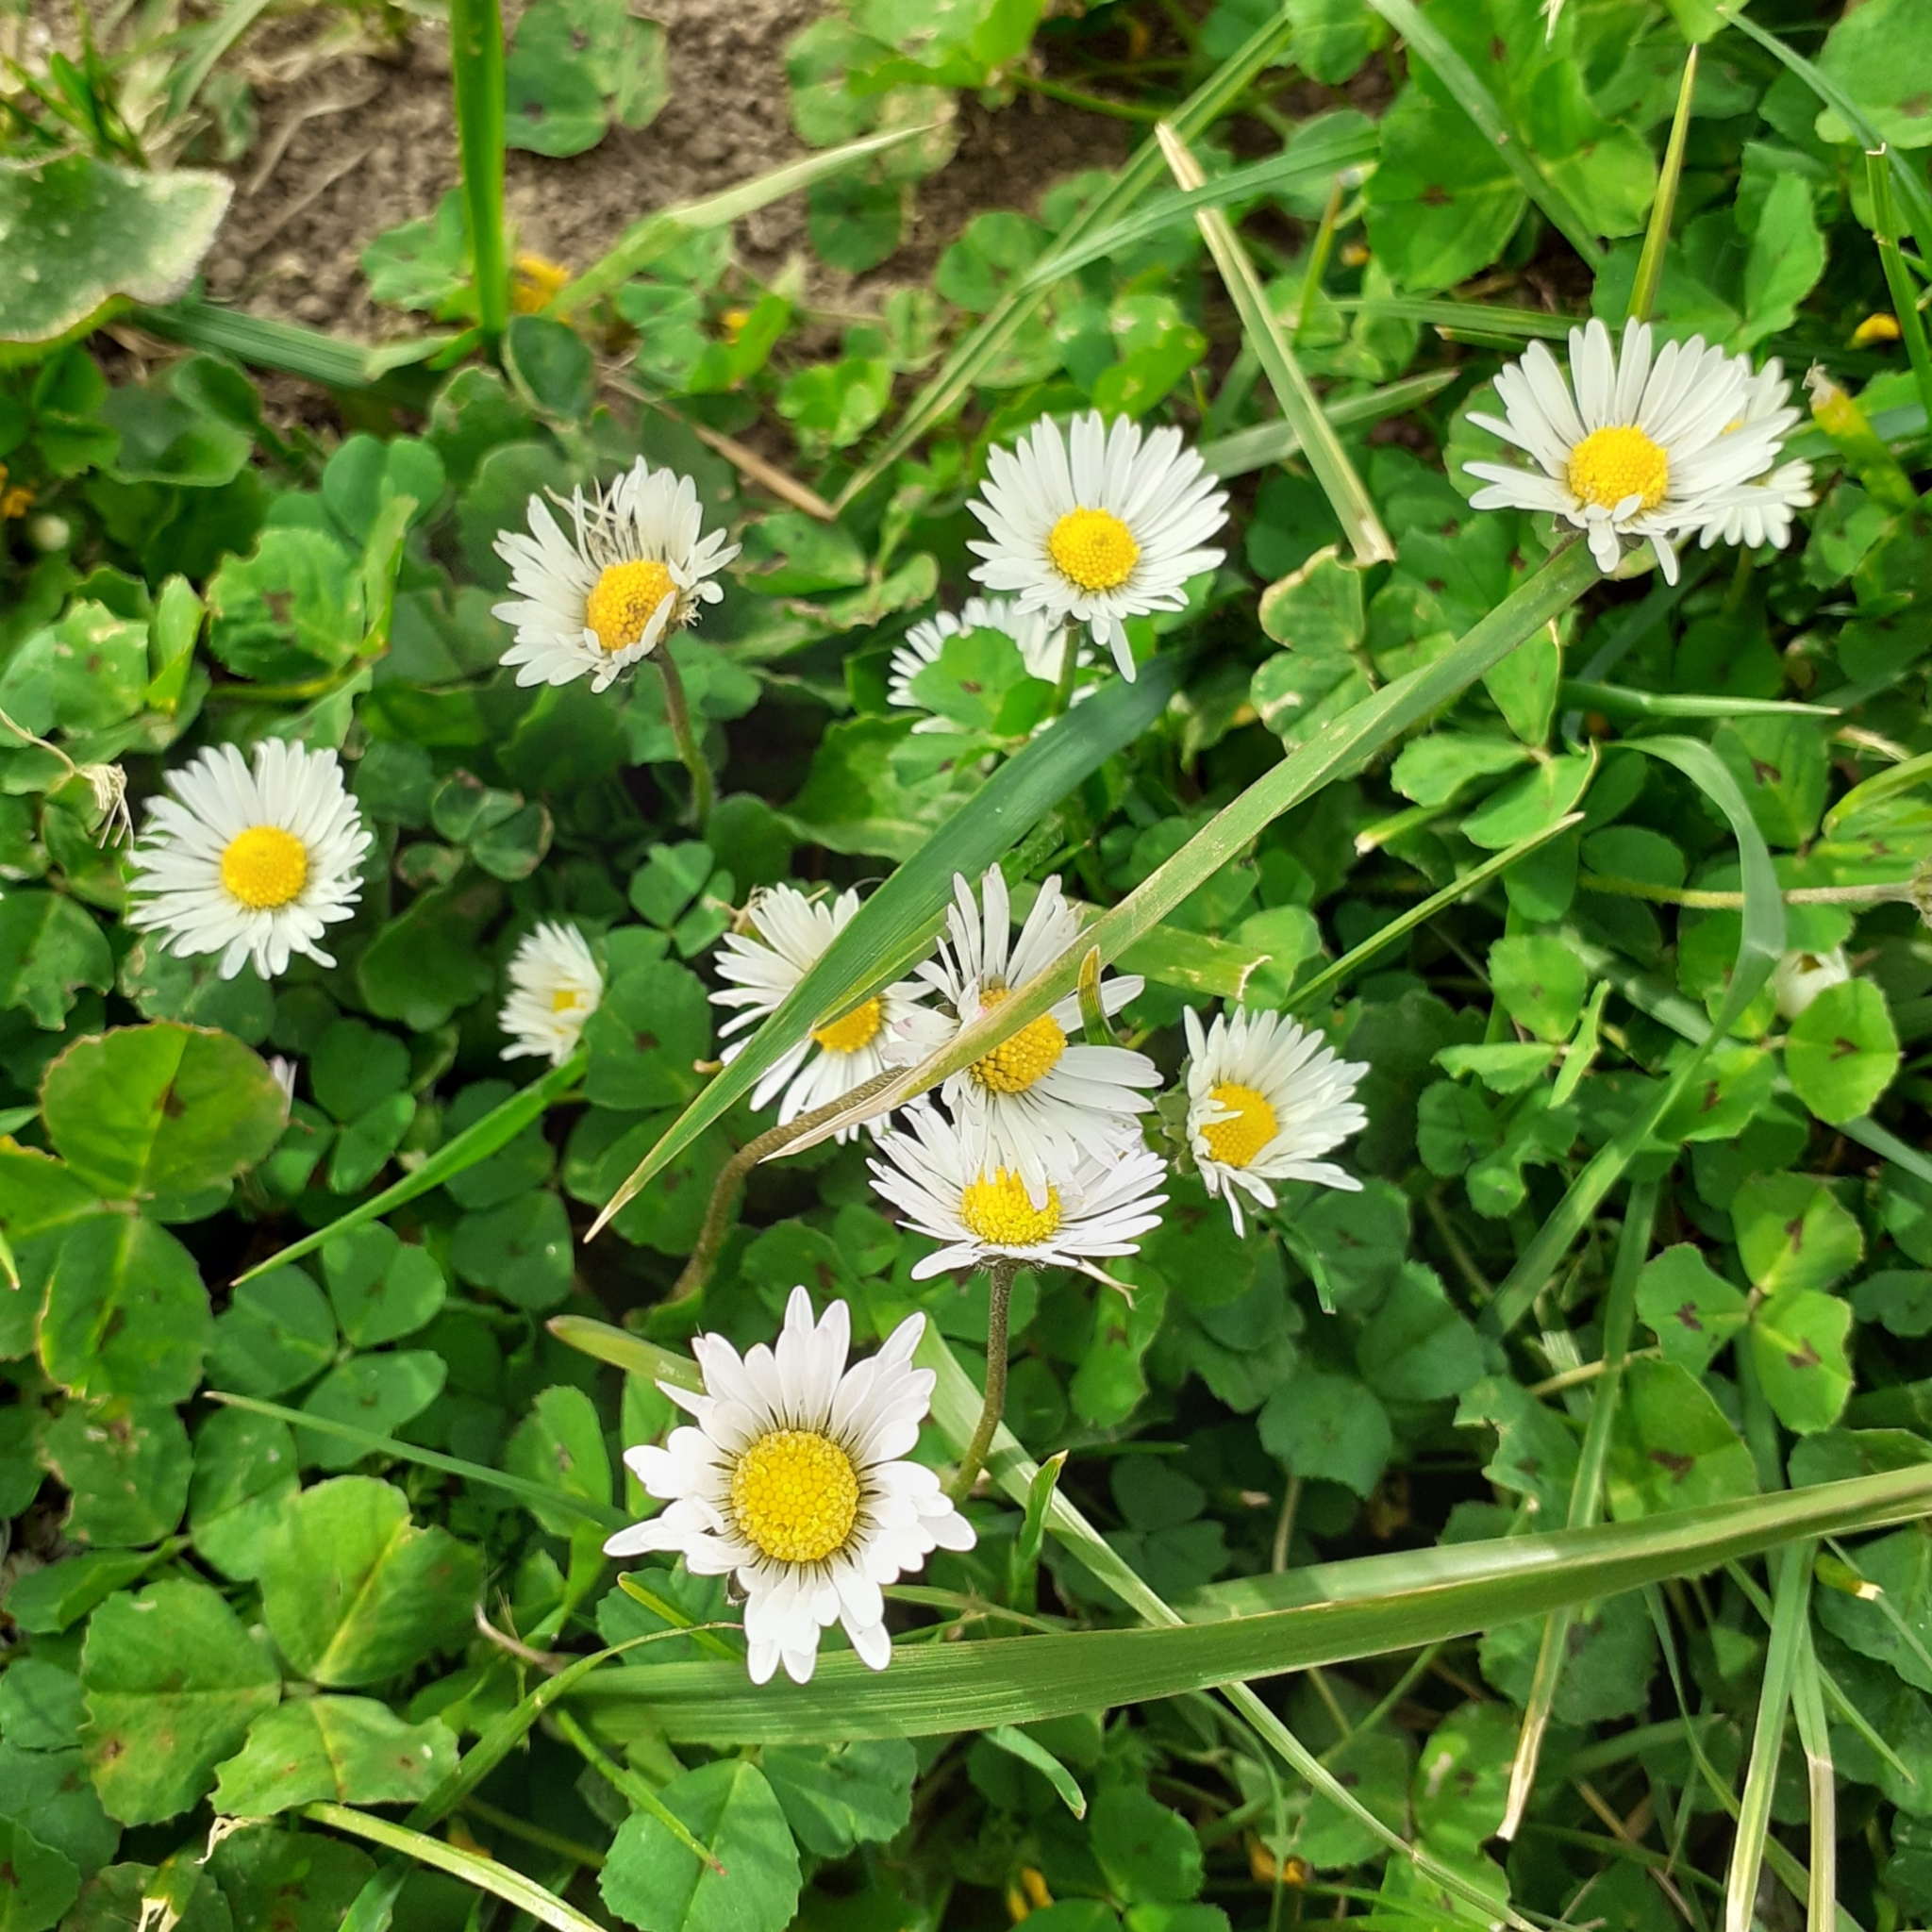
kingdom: Plantae
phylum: Tracheophyta
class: Magnoliopsida
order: Asterales
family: Asteraceae
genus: Bellis
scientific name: Bellis perennis
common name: Lawndaisy
